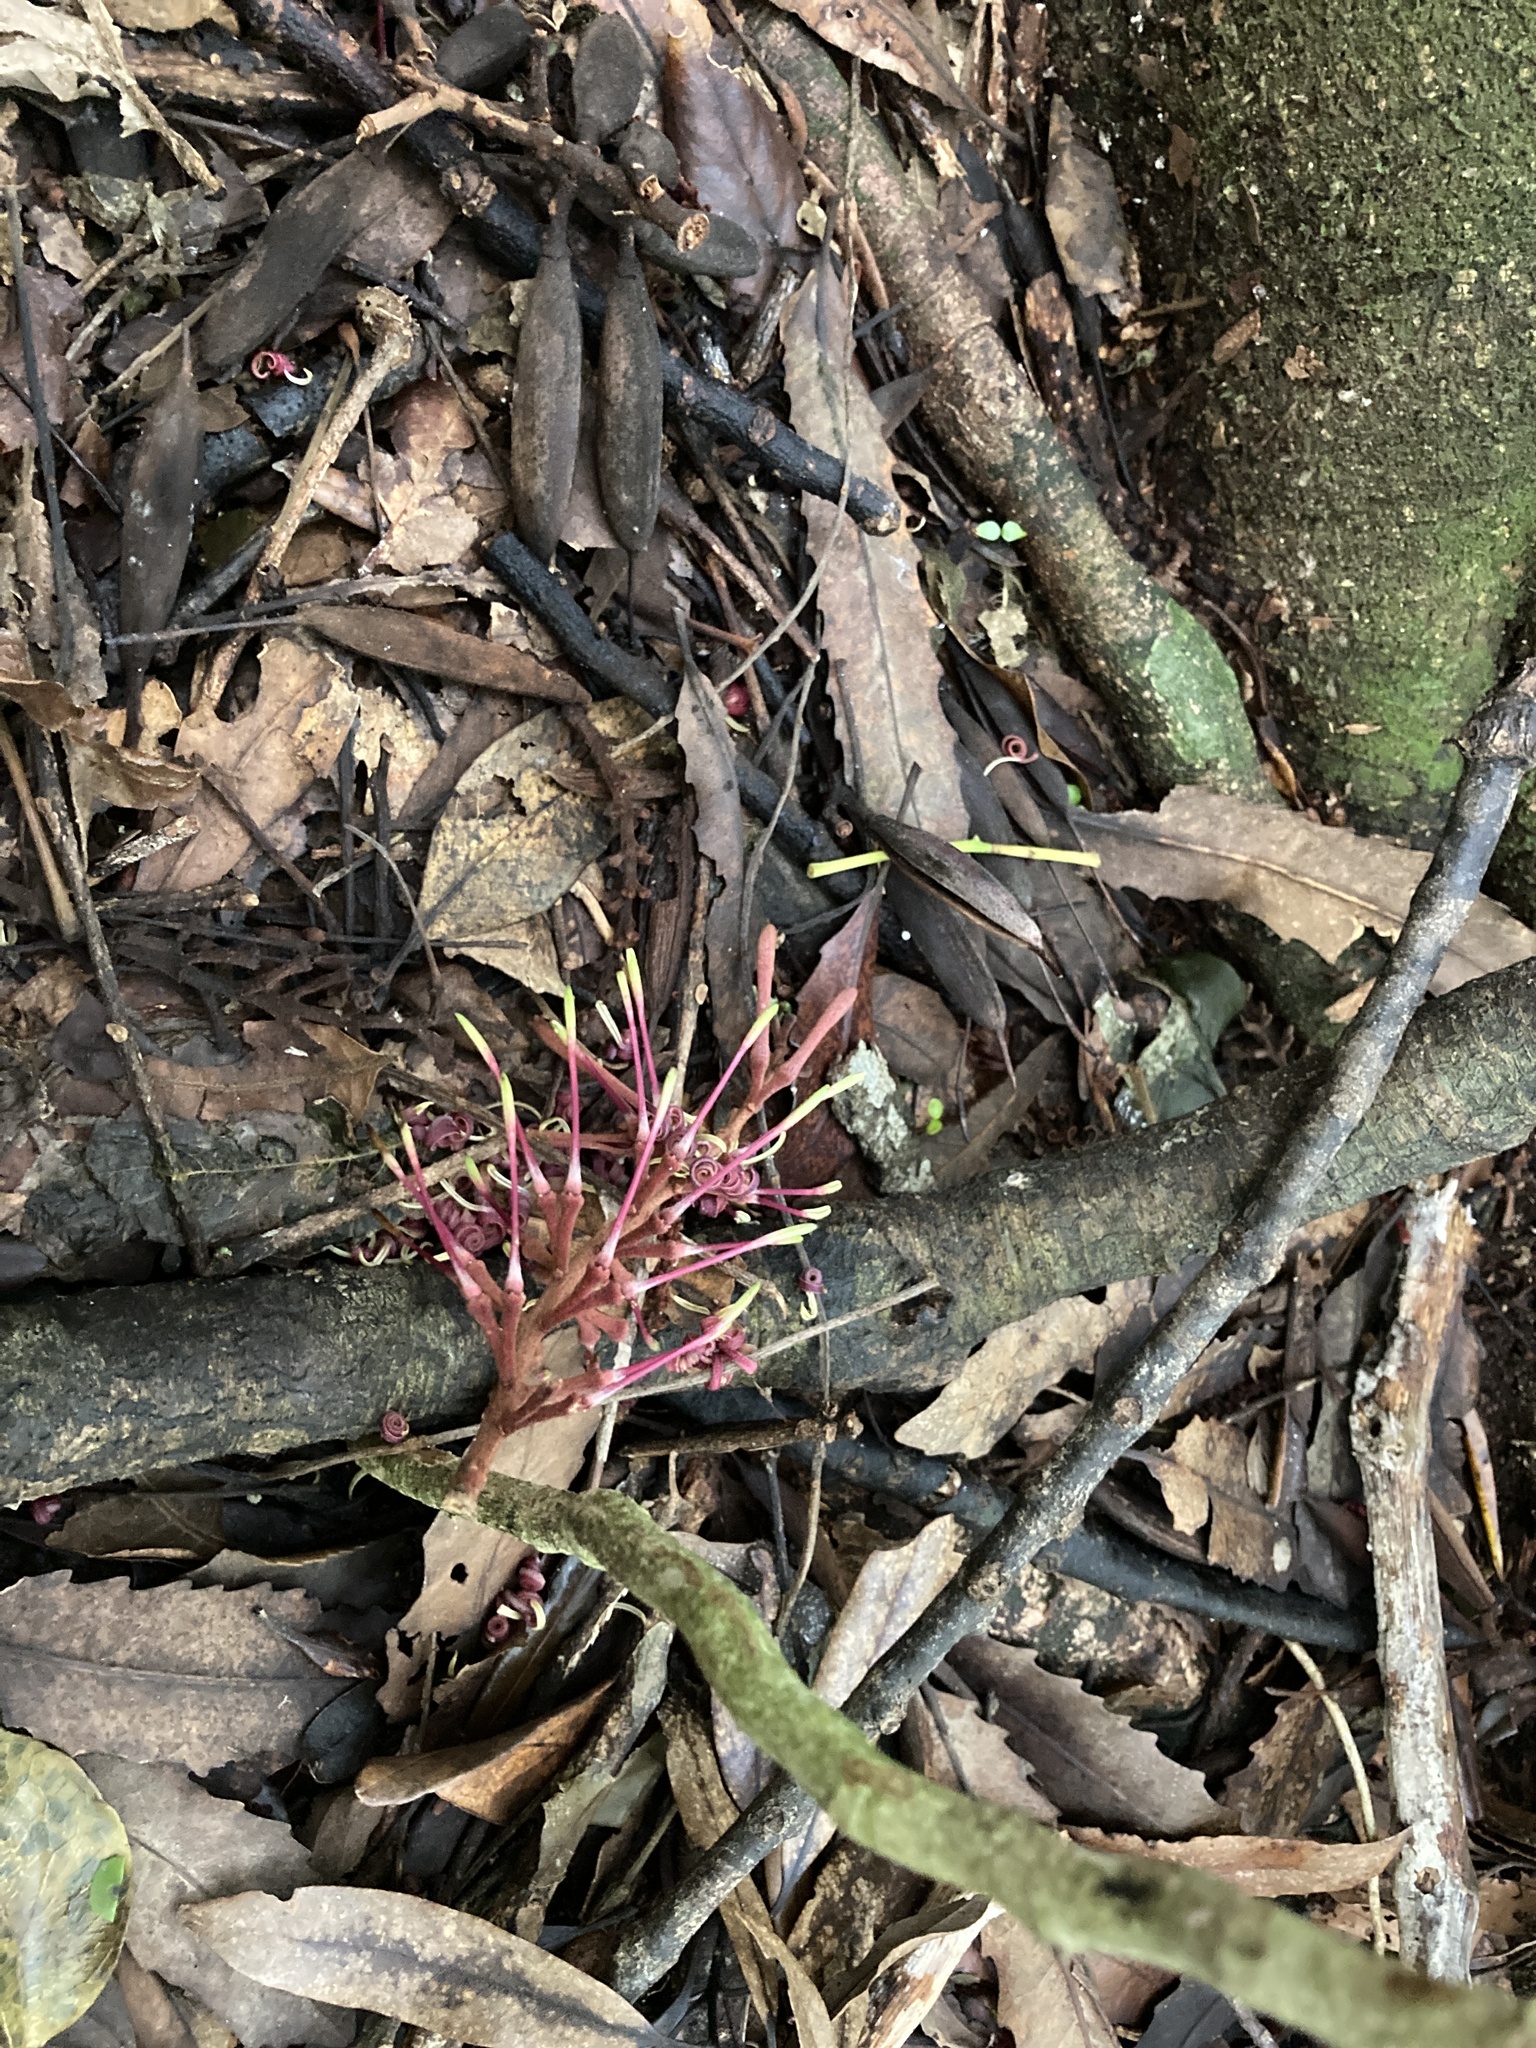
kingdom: Plantae
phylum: Tracheophyta
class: Magnoliopsida
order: Proteales
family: Proteaceae
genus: Knightia
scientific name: Knightia excelsa
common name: New zealand-honeysuckle
